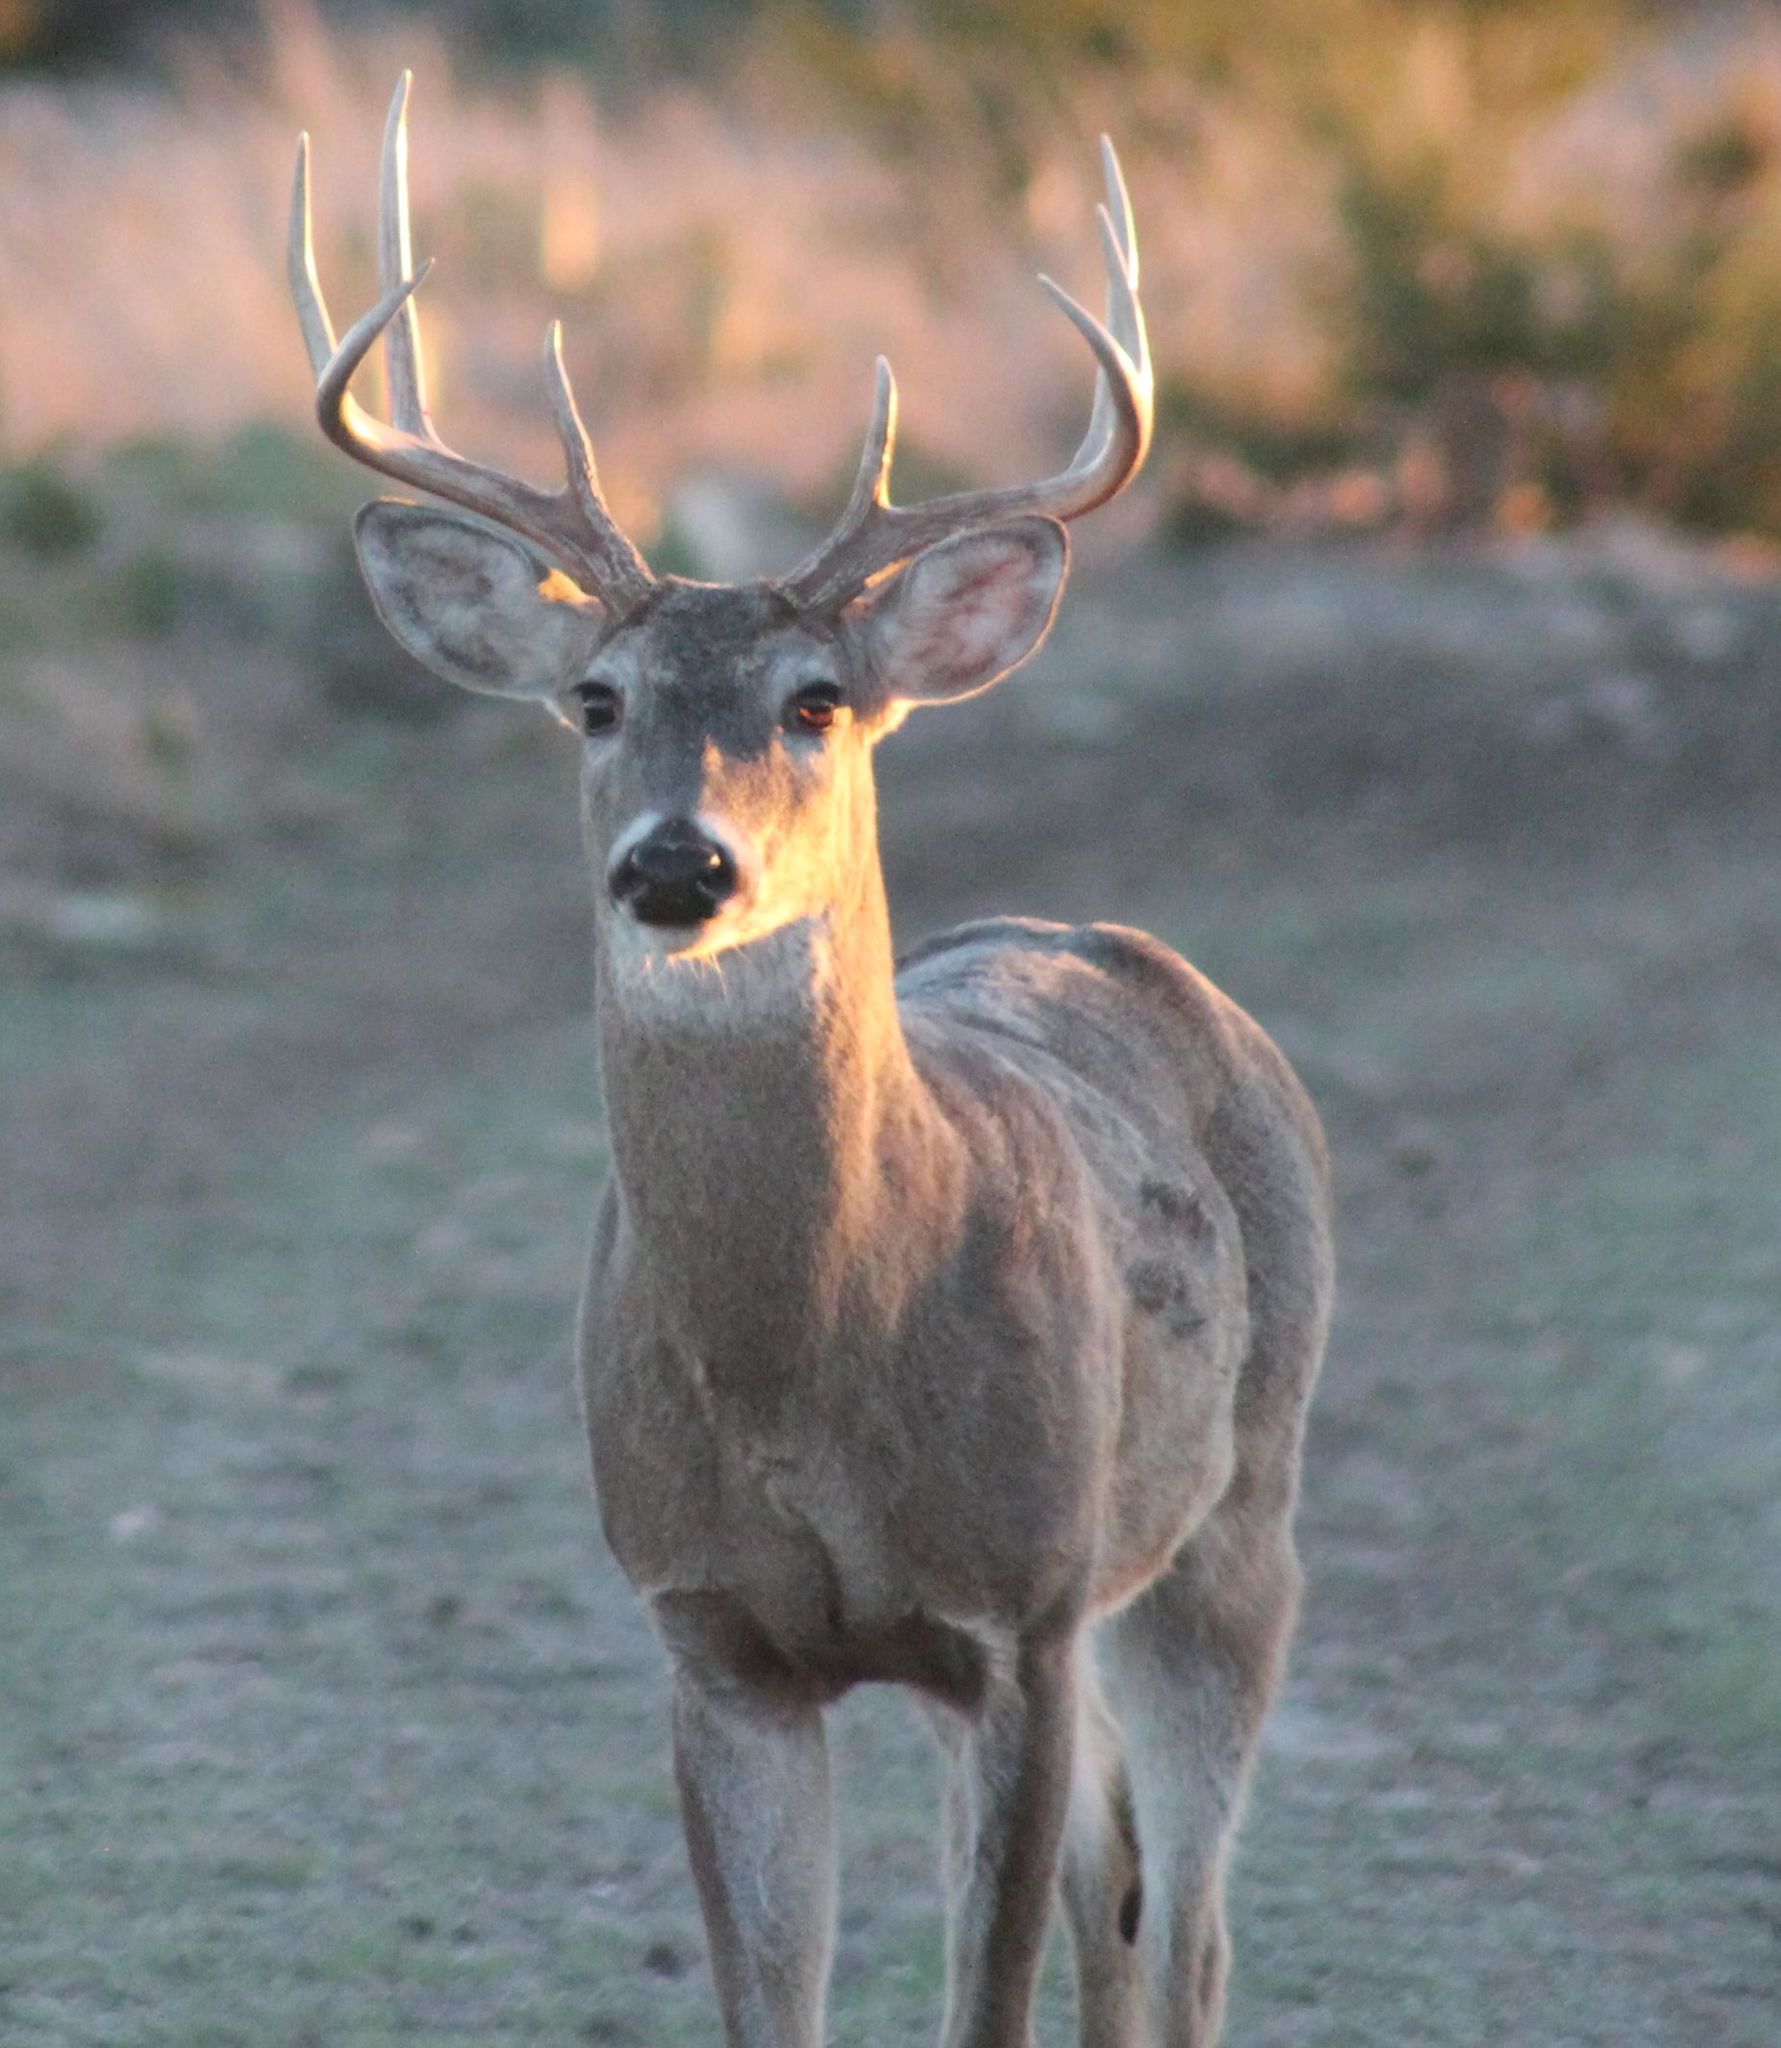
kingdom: Animalia
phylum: Chordata
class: Mammalia
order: Artiodactyla
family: Cervidae
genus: Odocoileus
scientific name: Odocoileus virginianus
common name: White-tailed deer
